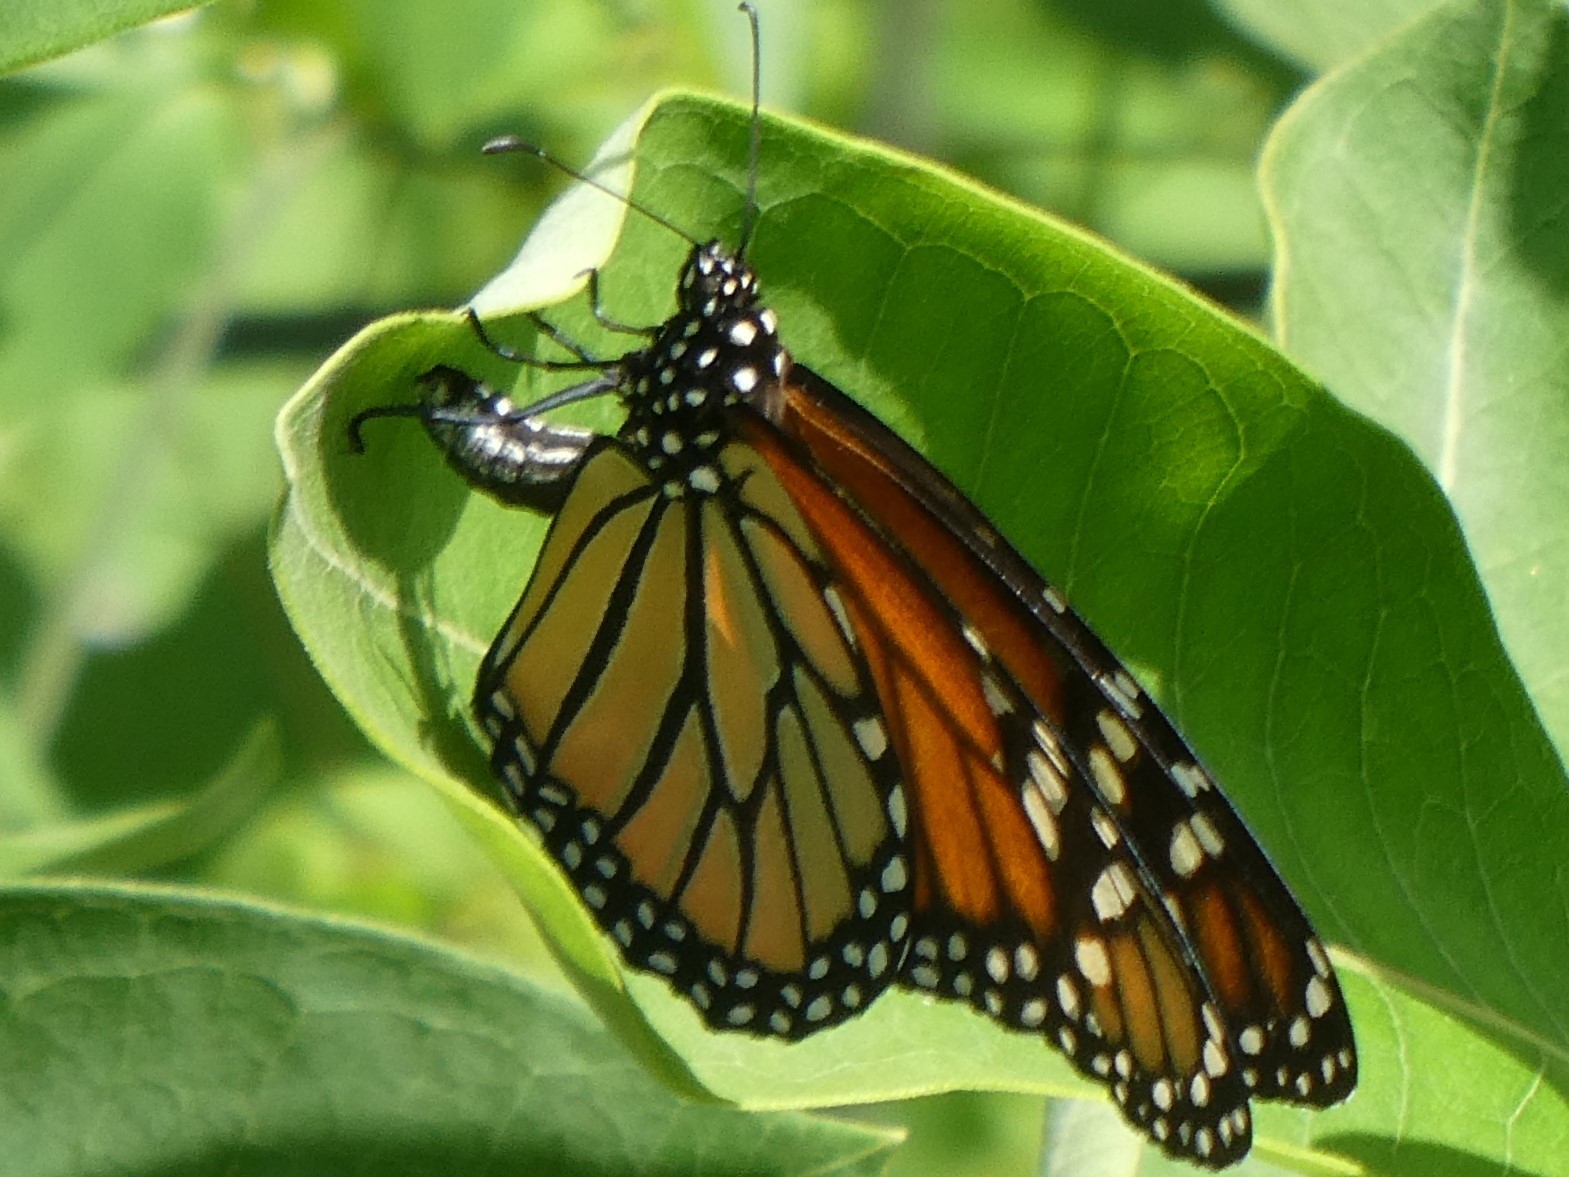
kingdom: Animalia
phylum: Arthropoda
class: Insecta
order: Lepidoptera
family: Nymphalidae
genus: Danaus
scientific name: Danaus plexippus
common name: Monarch
